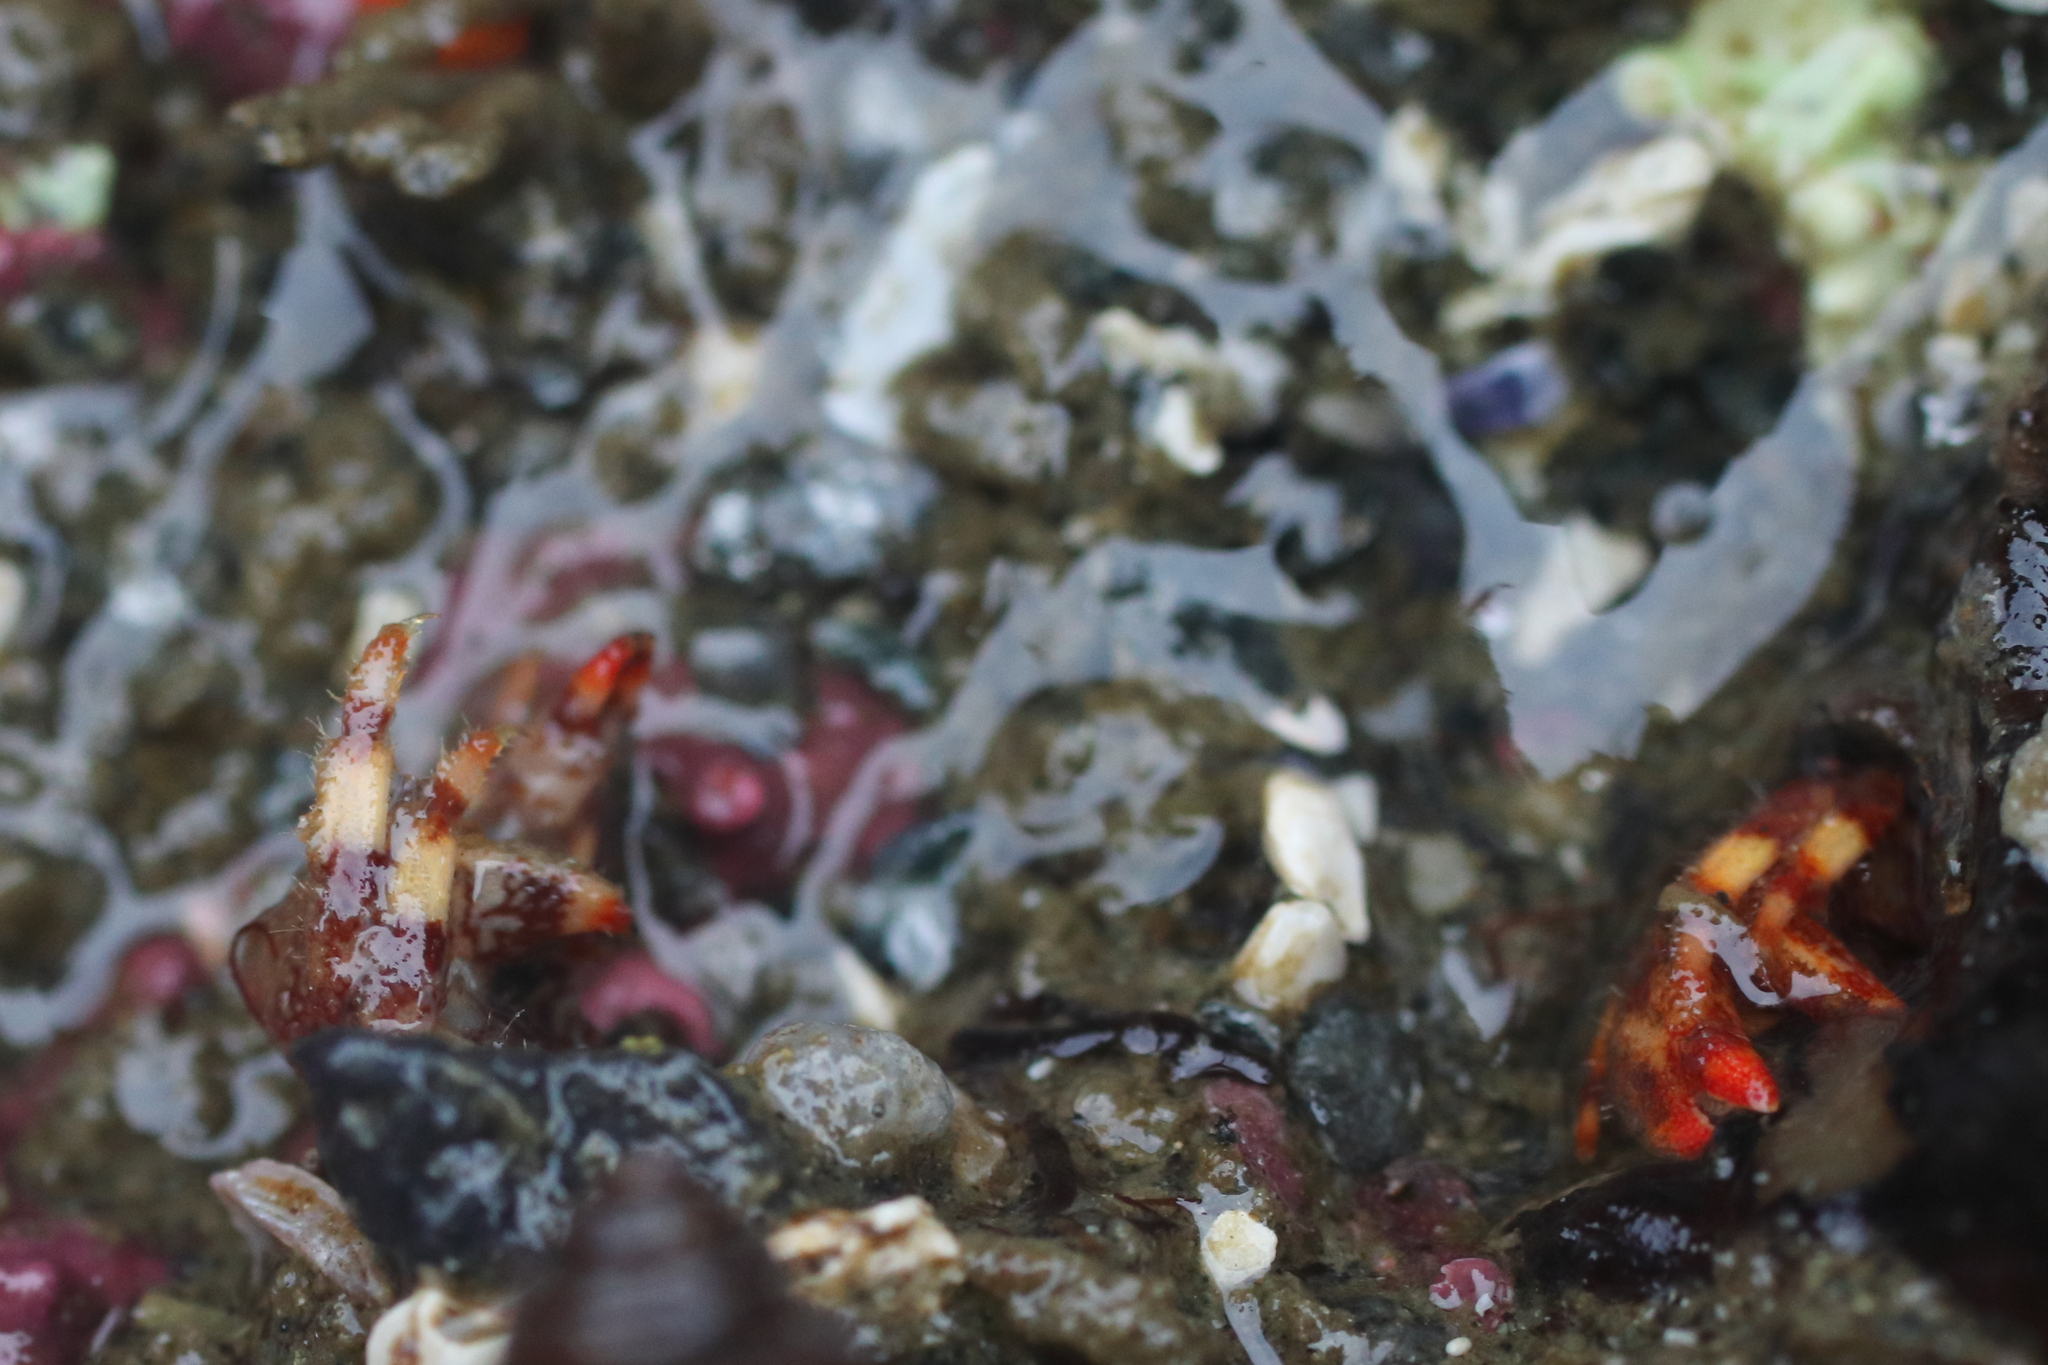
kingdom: Animalia
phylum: Arthropoda
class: Malacostraca
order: Decapoda
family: Paguridae
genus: Discorsopagurus
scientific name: Discorsopagurus schmitti
